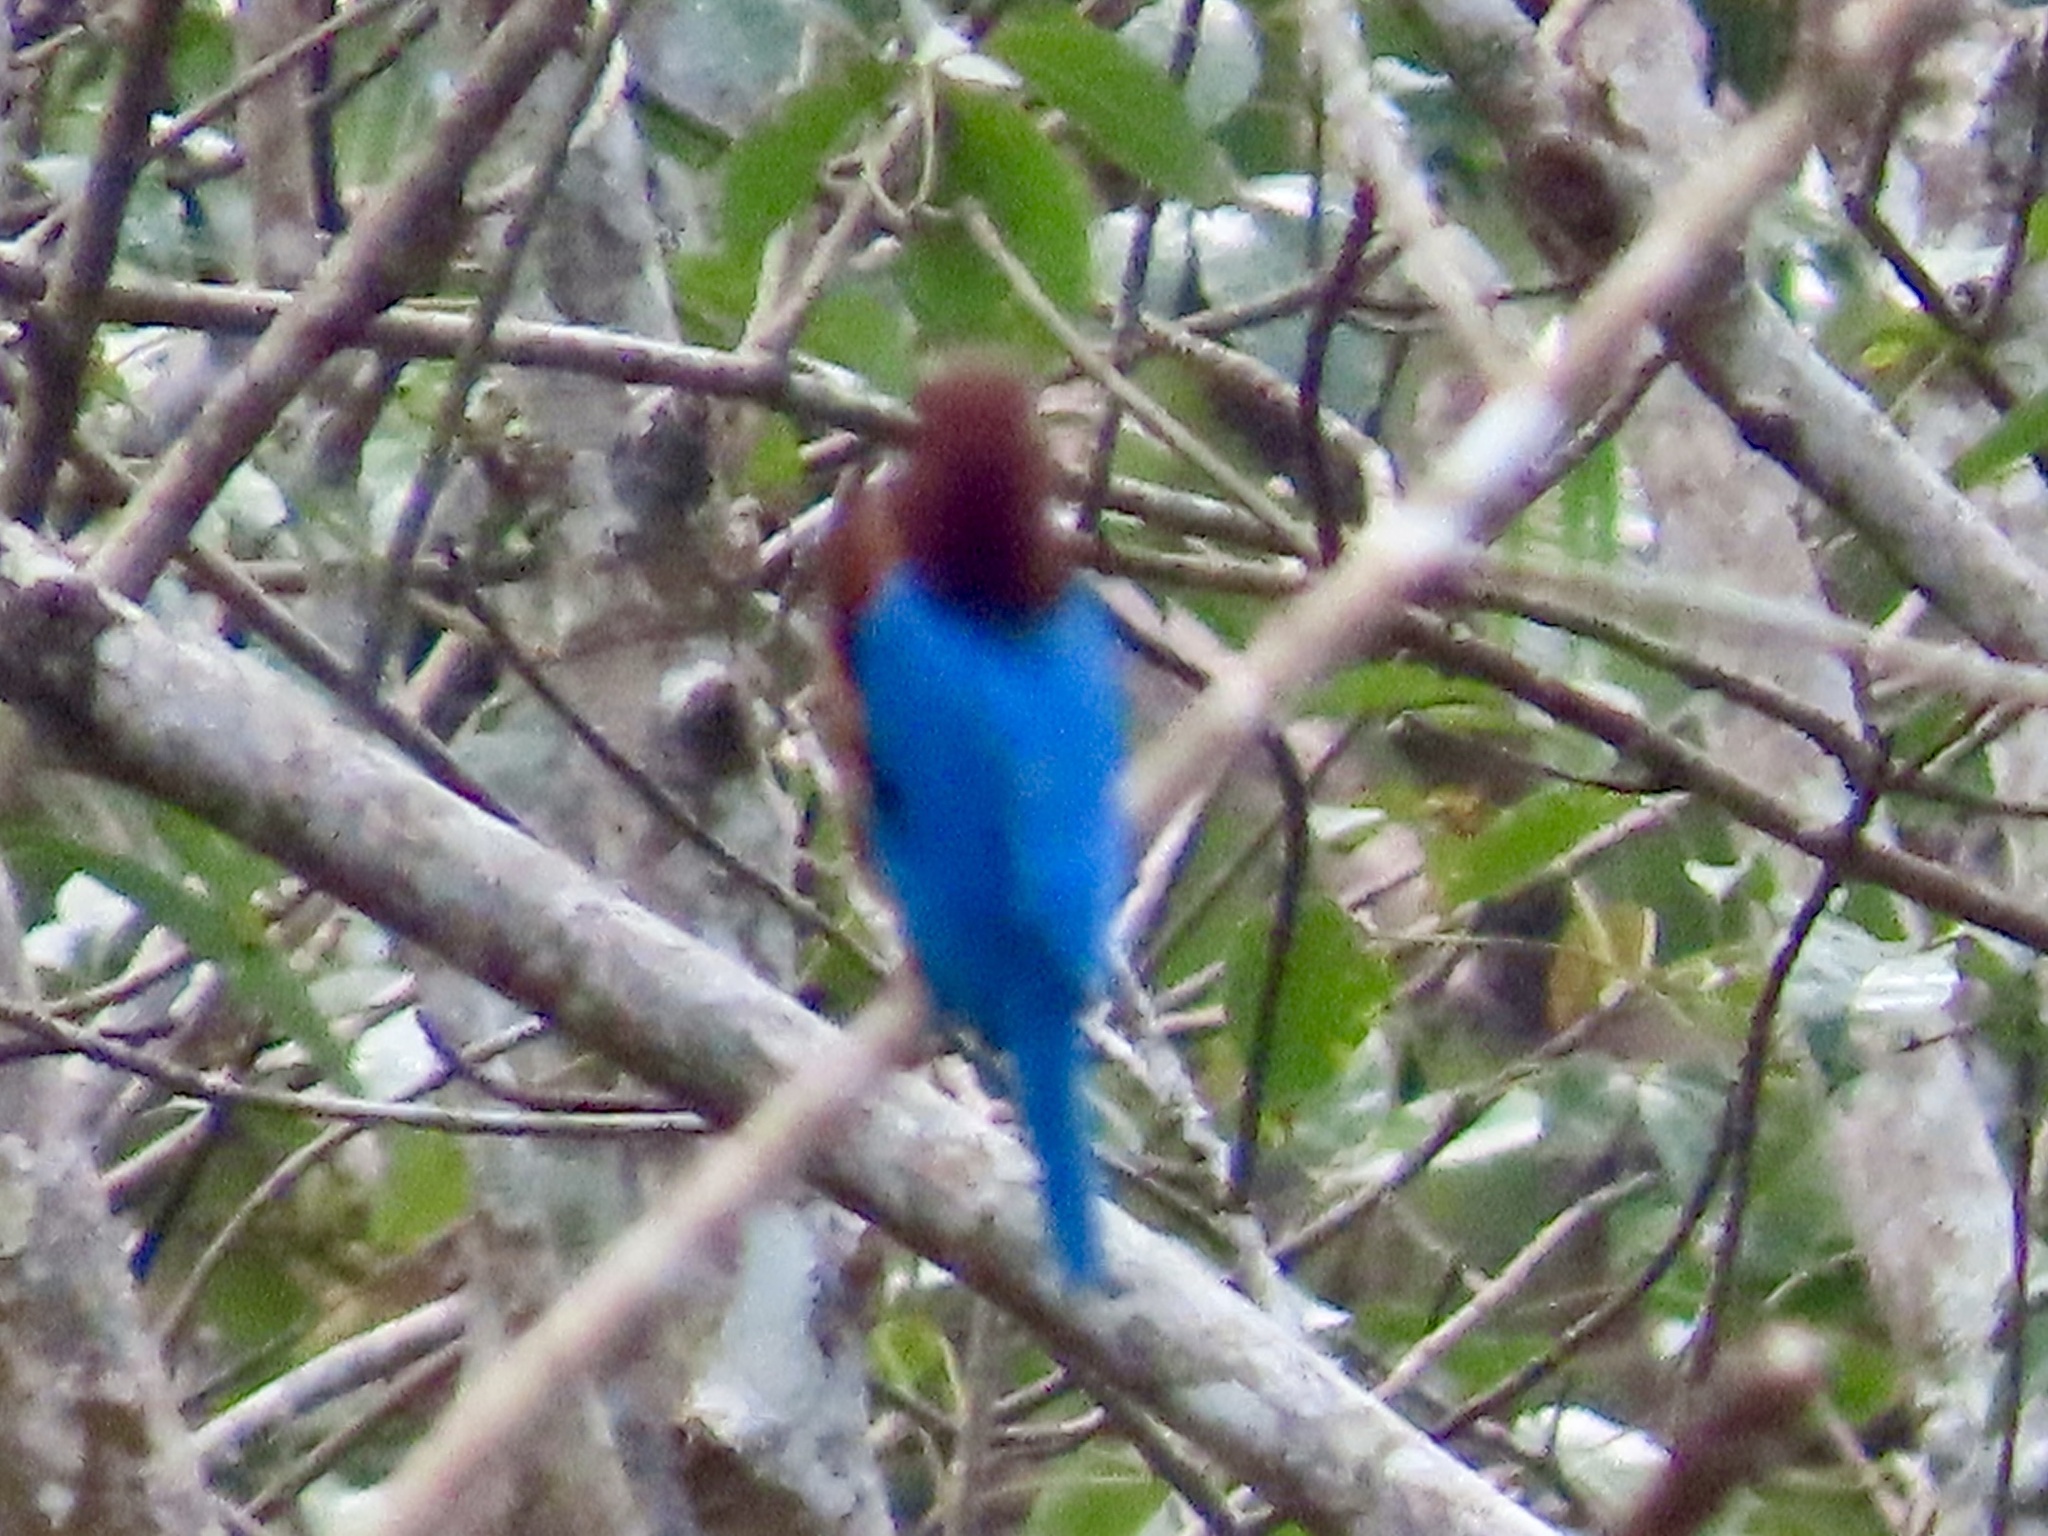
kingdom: Animalia
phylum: Chordata
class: Aves
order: Coraciiformes
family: Alcedinidae
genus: Halcyon
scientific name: Halcyon smyrnensis
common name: White-throated kingfisher
